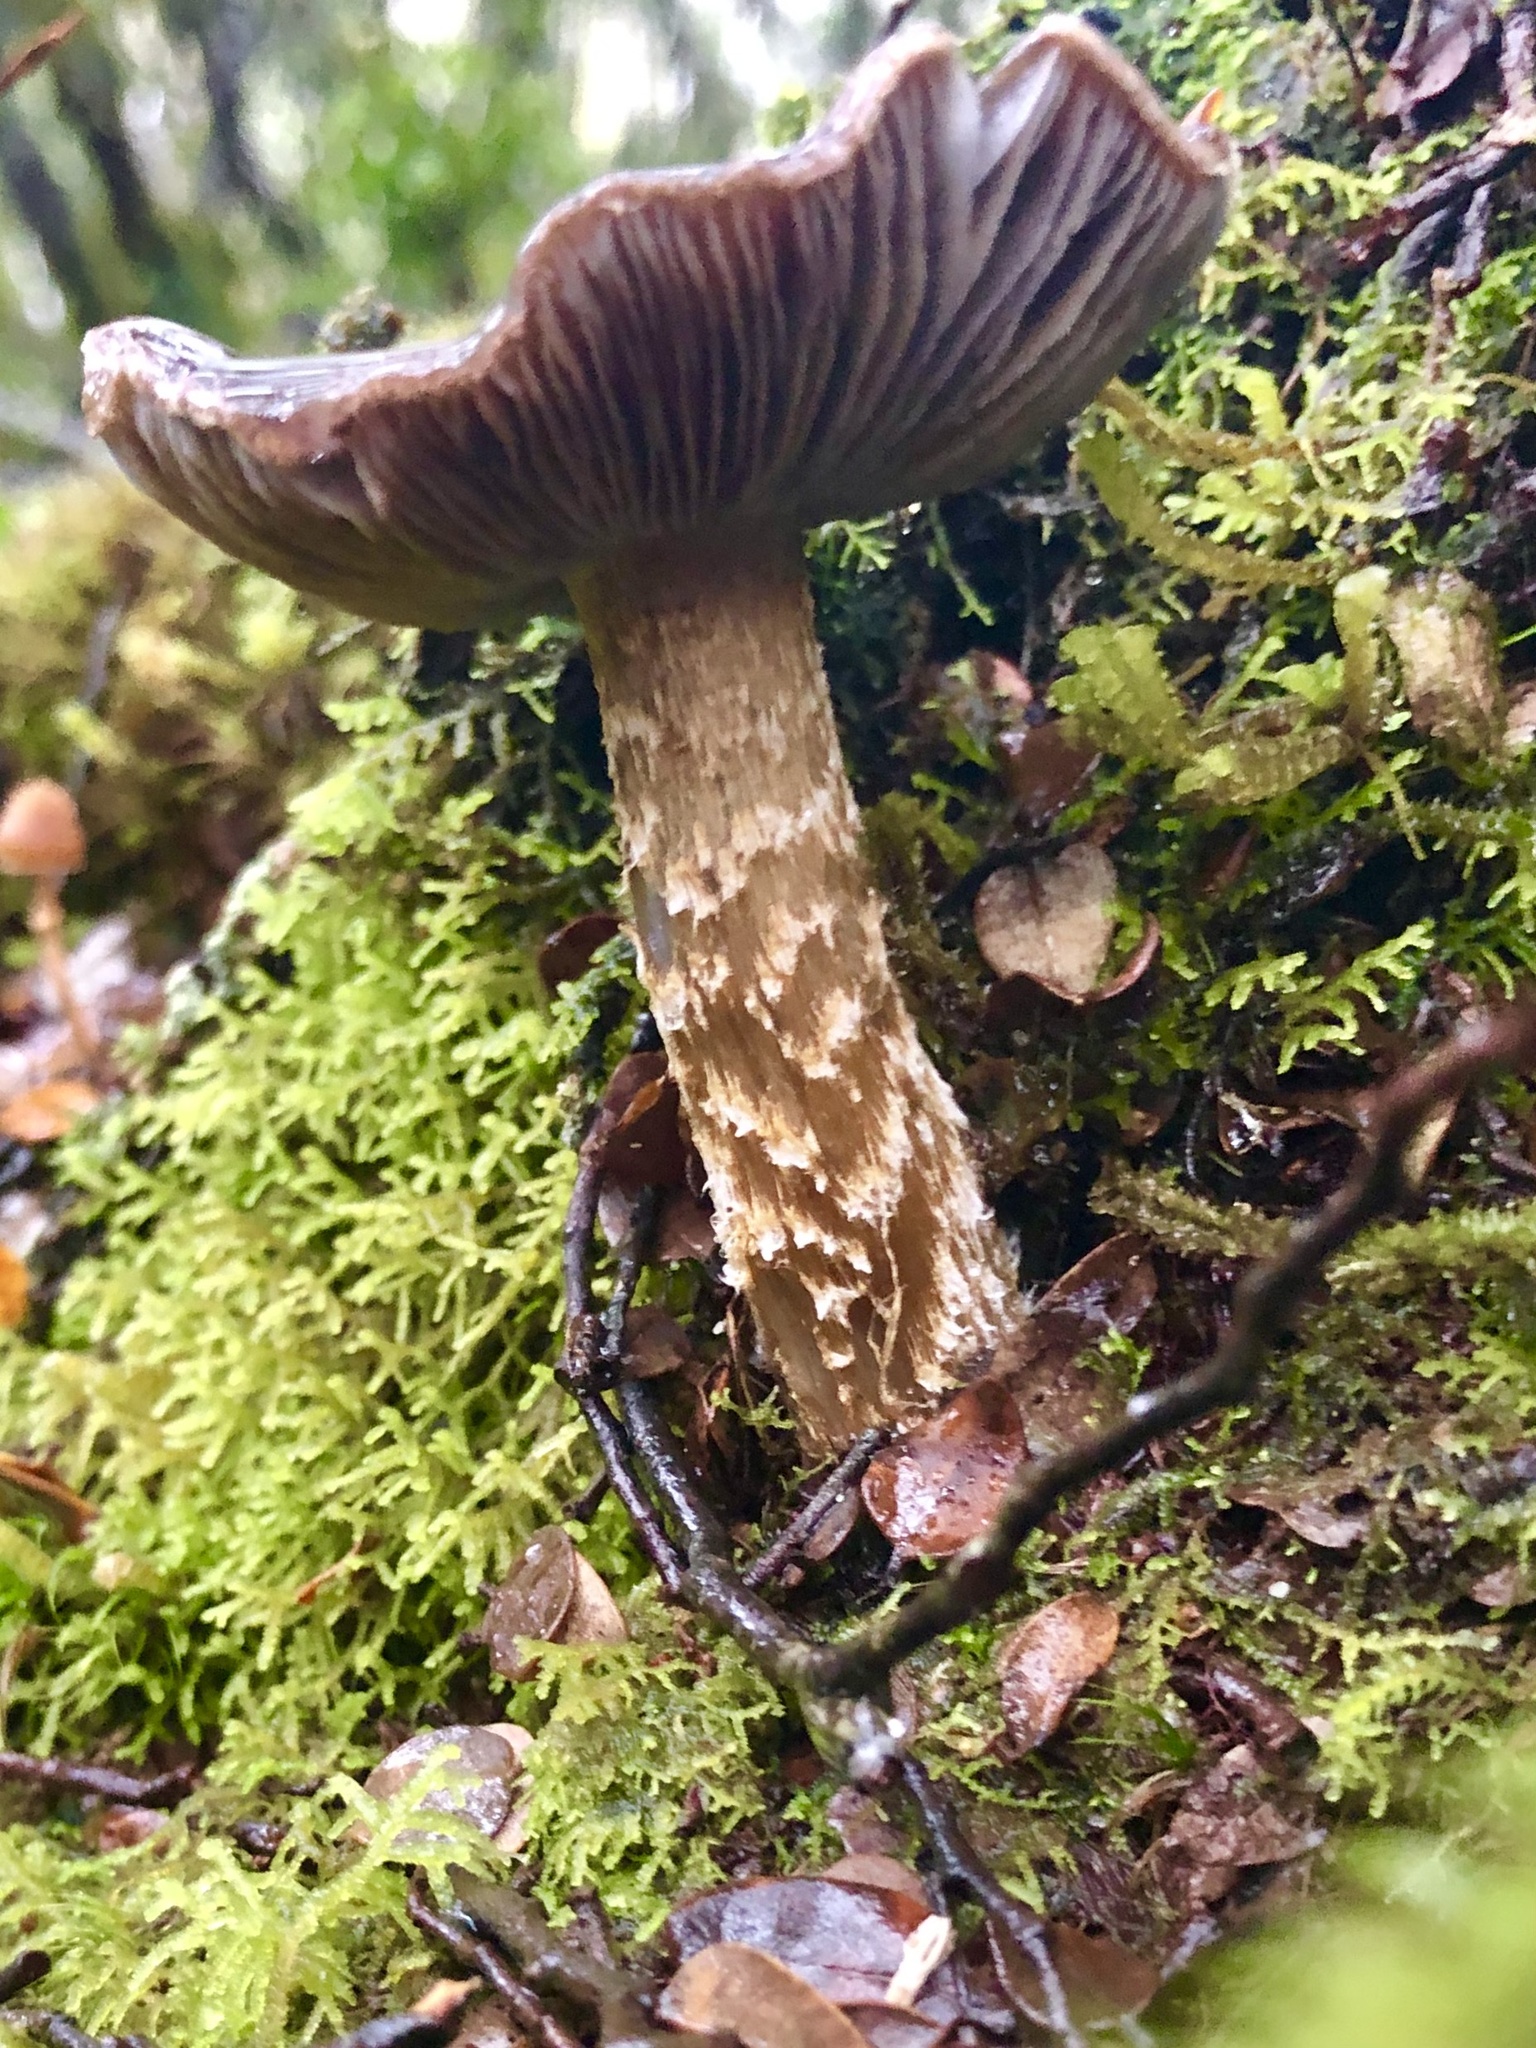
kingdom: Fungi
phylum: Basidiomycota
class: Agaricomycetes
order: Agaricales
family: Cortinariaceae
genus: Cortinarius
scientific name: Cortinarius elaiochrous
